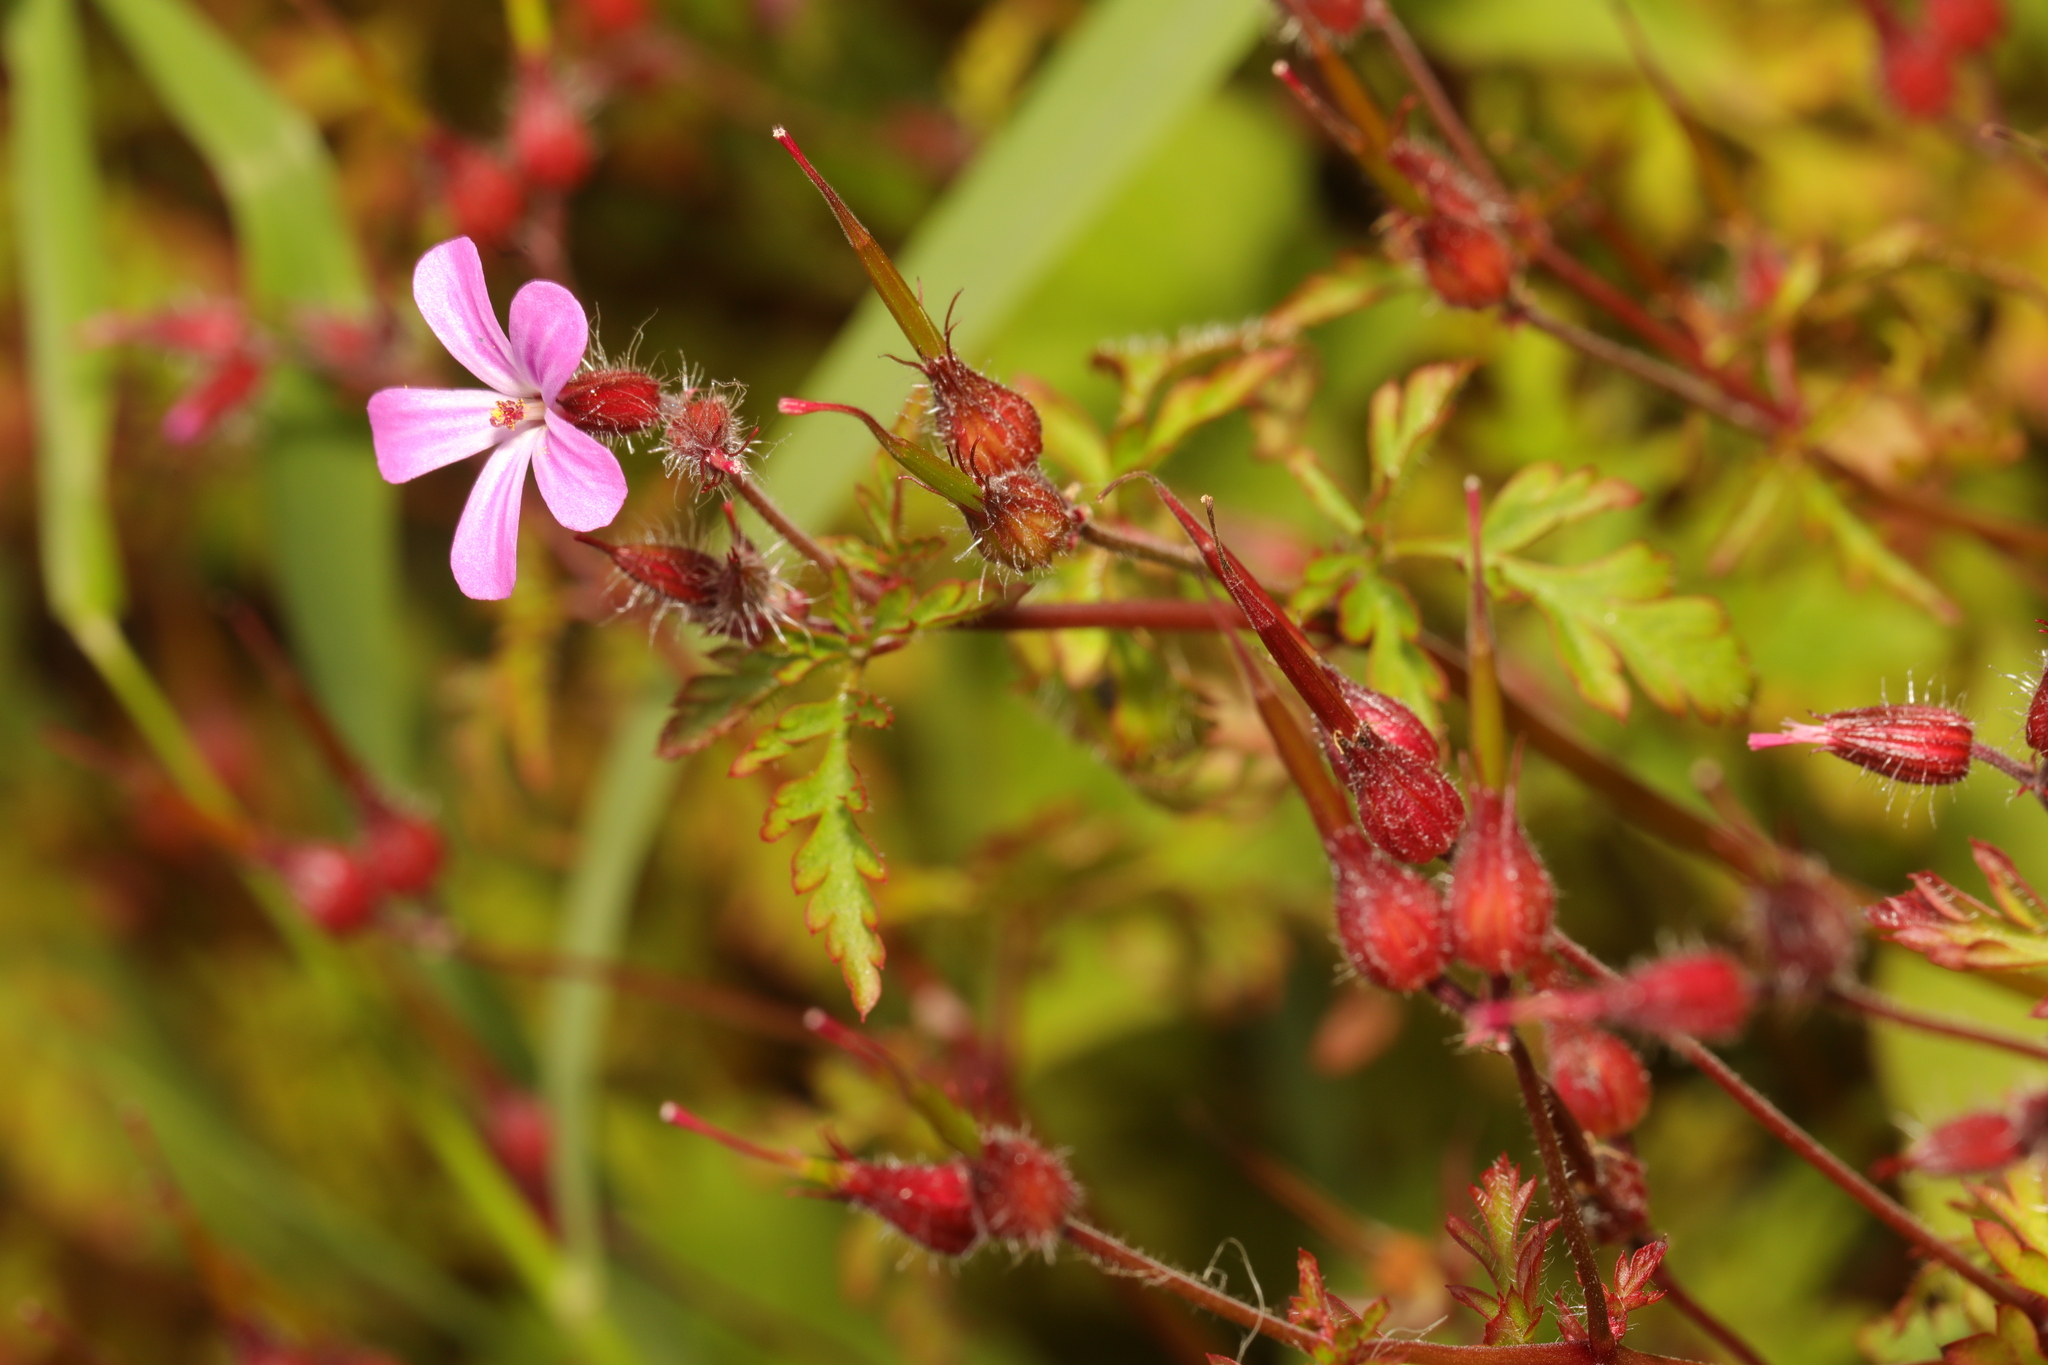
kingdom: Plantae
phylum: Tracheophyta
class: Magnoliopsida
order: Geraniales
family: Geraniaceae
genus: Geranium
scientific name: Geranium robertianum
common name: Herb-robert
